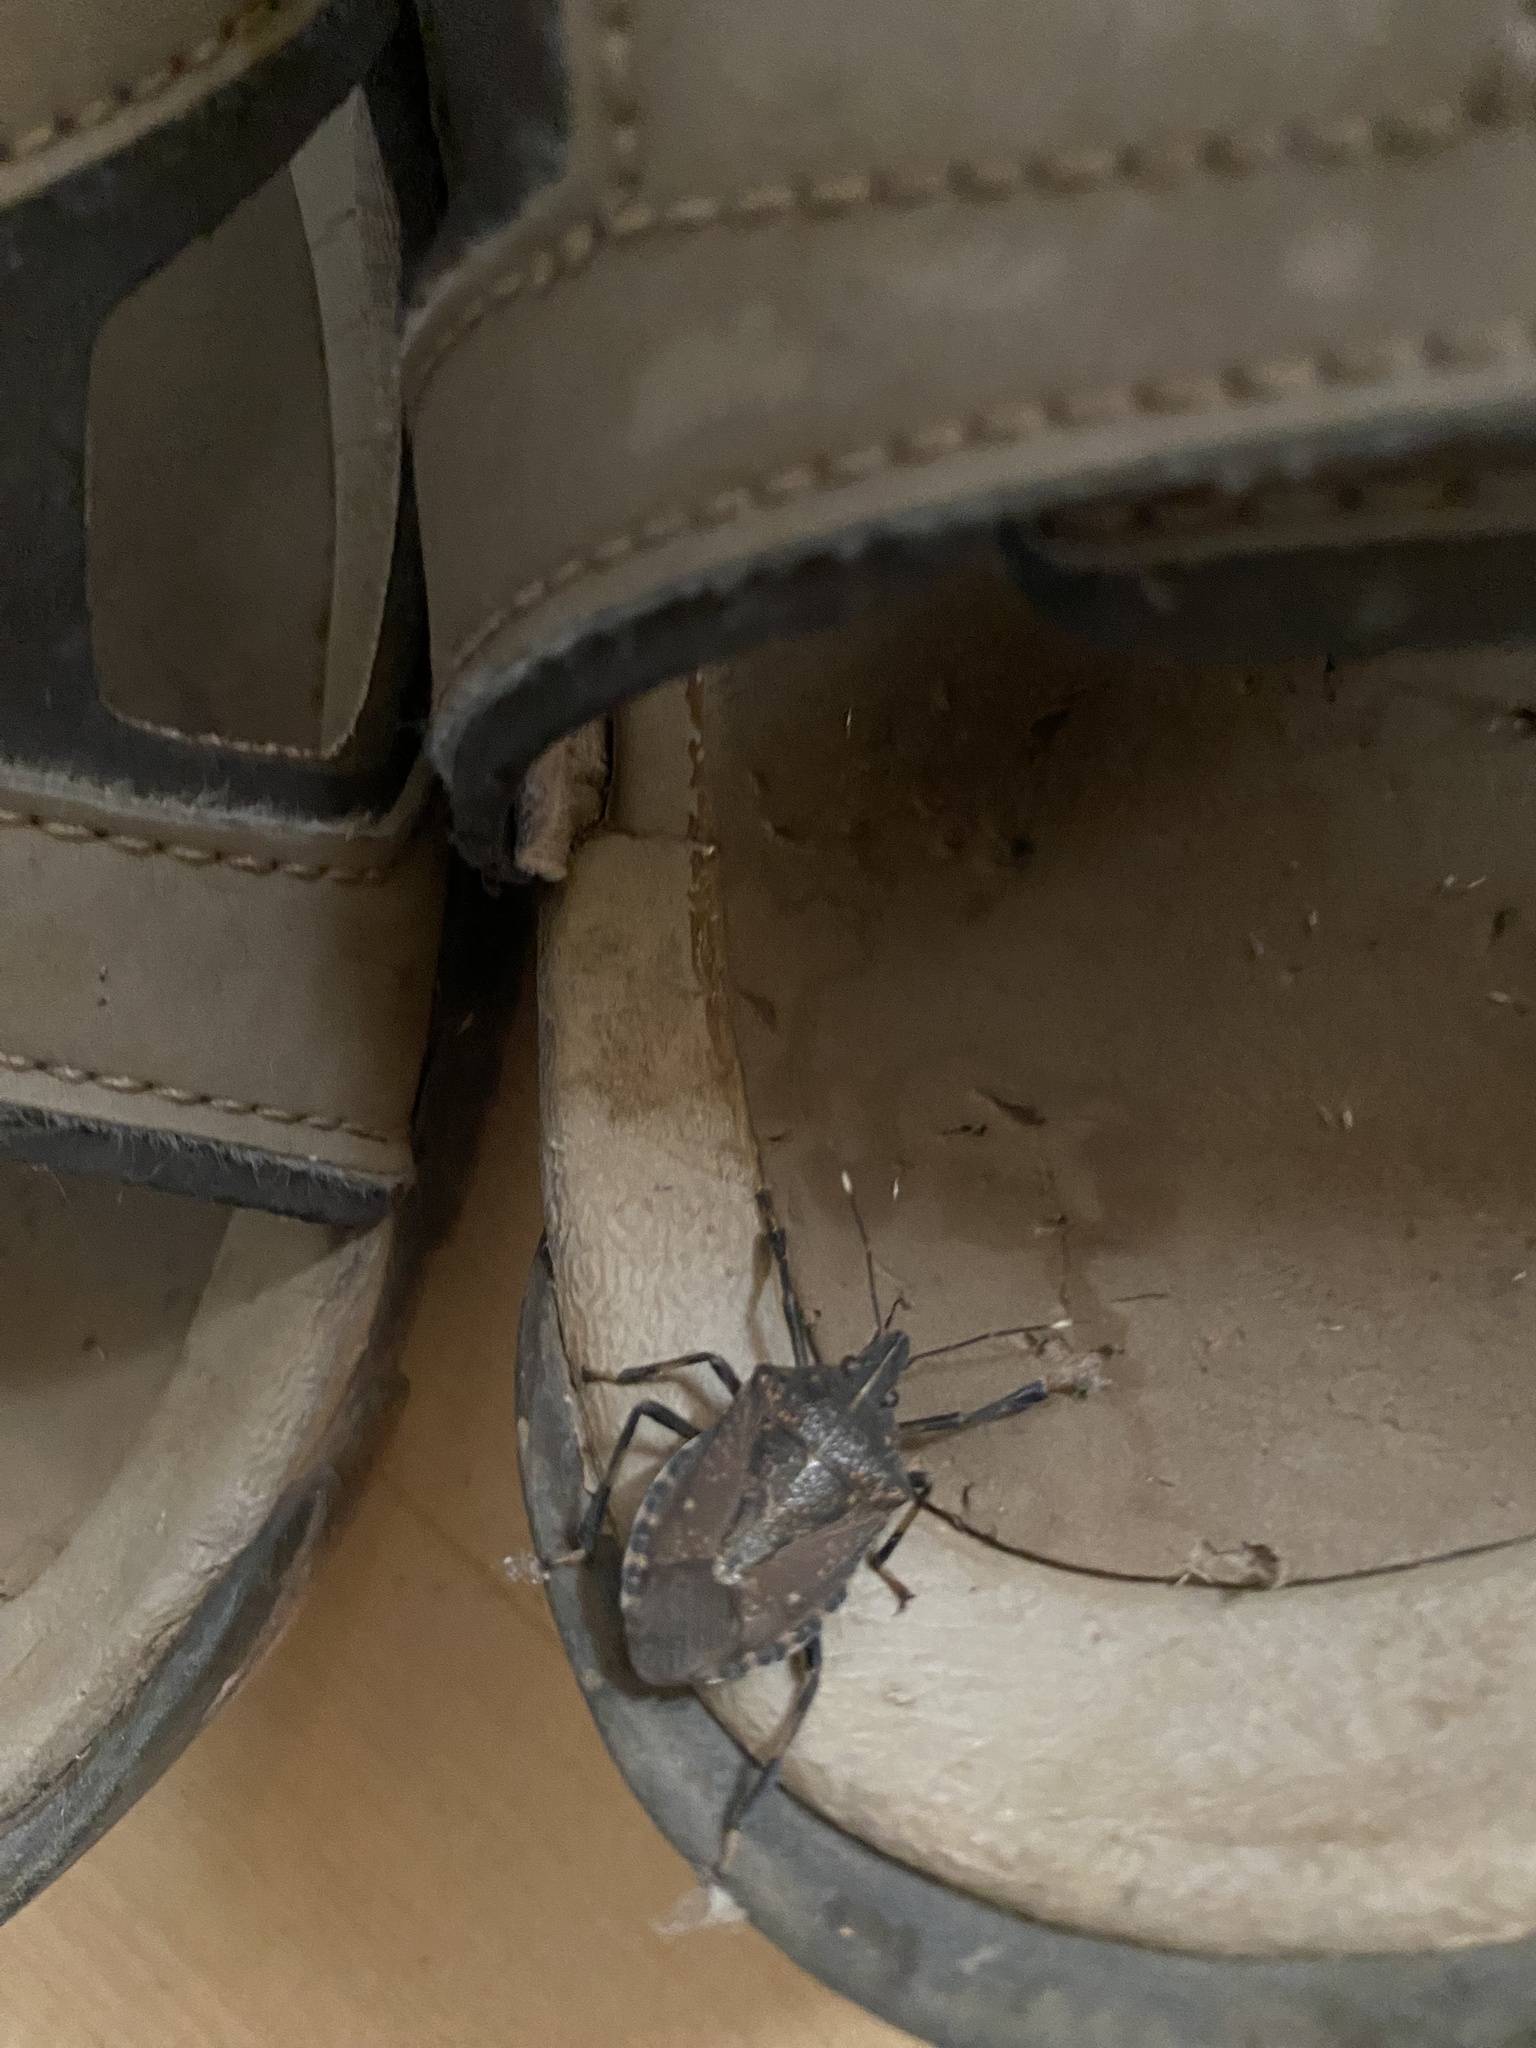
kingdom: Animalia
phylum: Arthropoda
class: Insecta
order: Hemiptera
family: Pentatomidae
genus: Erthesina
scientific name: Erthesina acuminata
